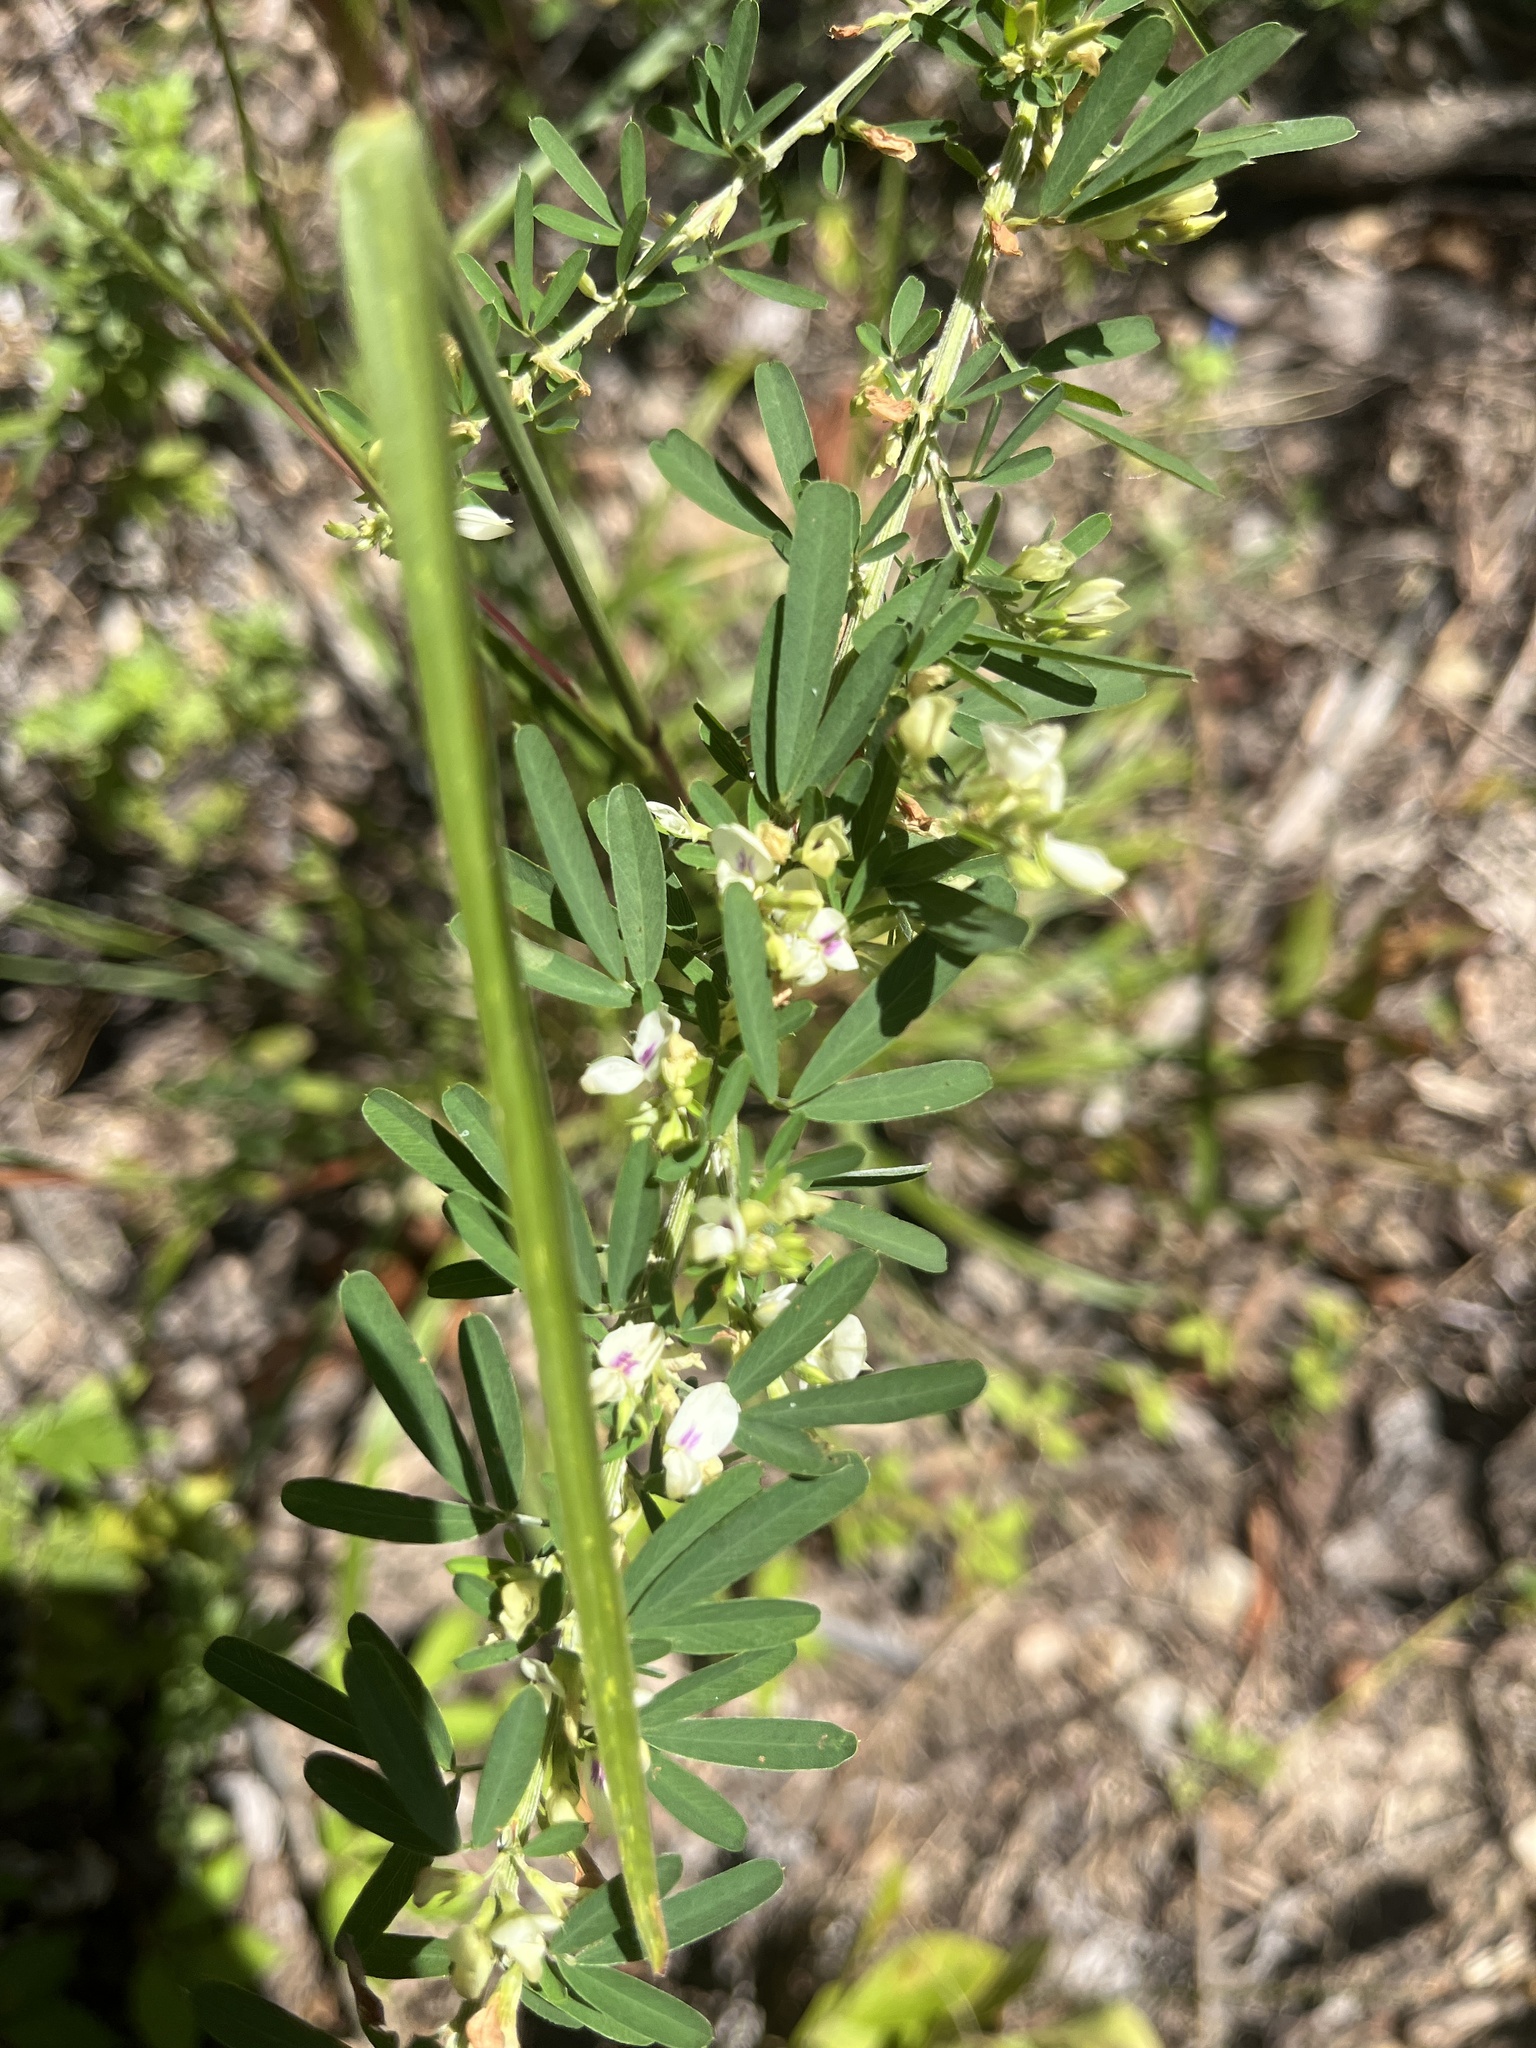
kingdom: Plantae
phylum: Tracheophyta
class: Magnoliopsida
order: Fabales
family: Fabaceae
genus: Lespedeza
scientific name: Lespedeza cuneata
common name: Chinese bush-clover
